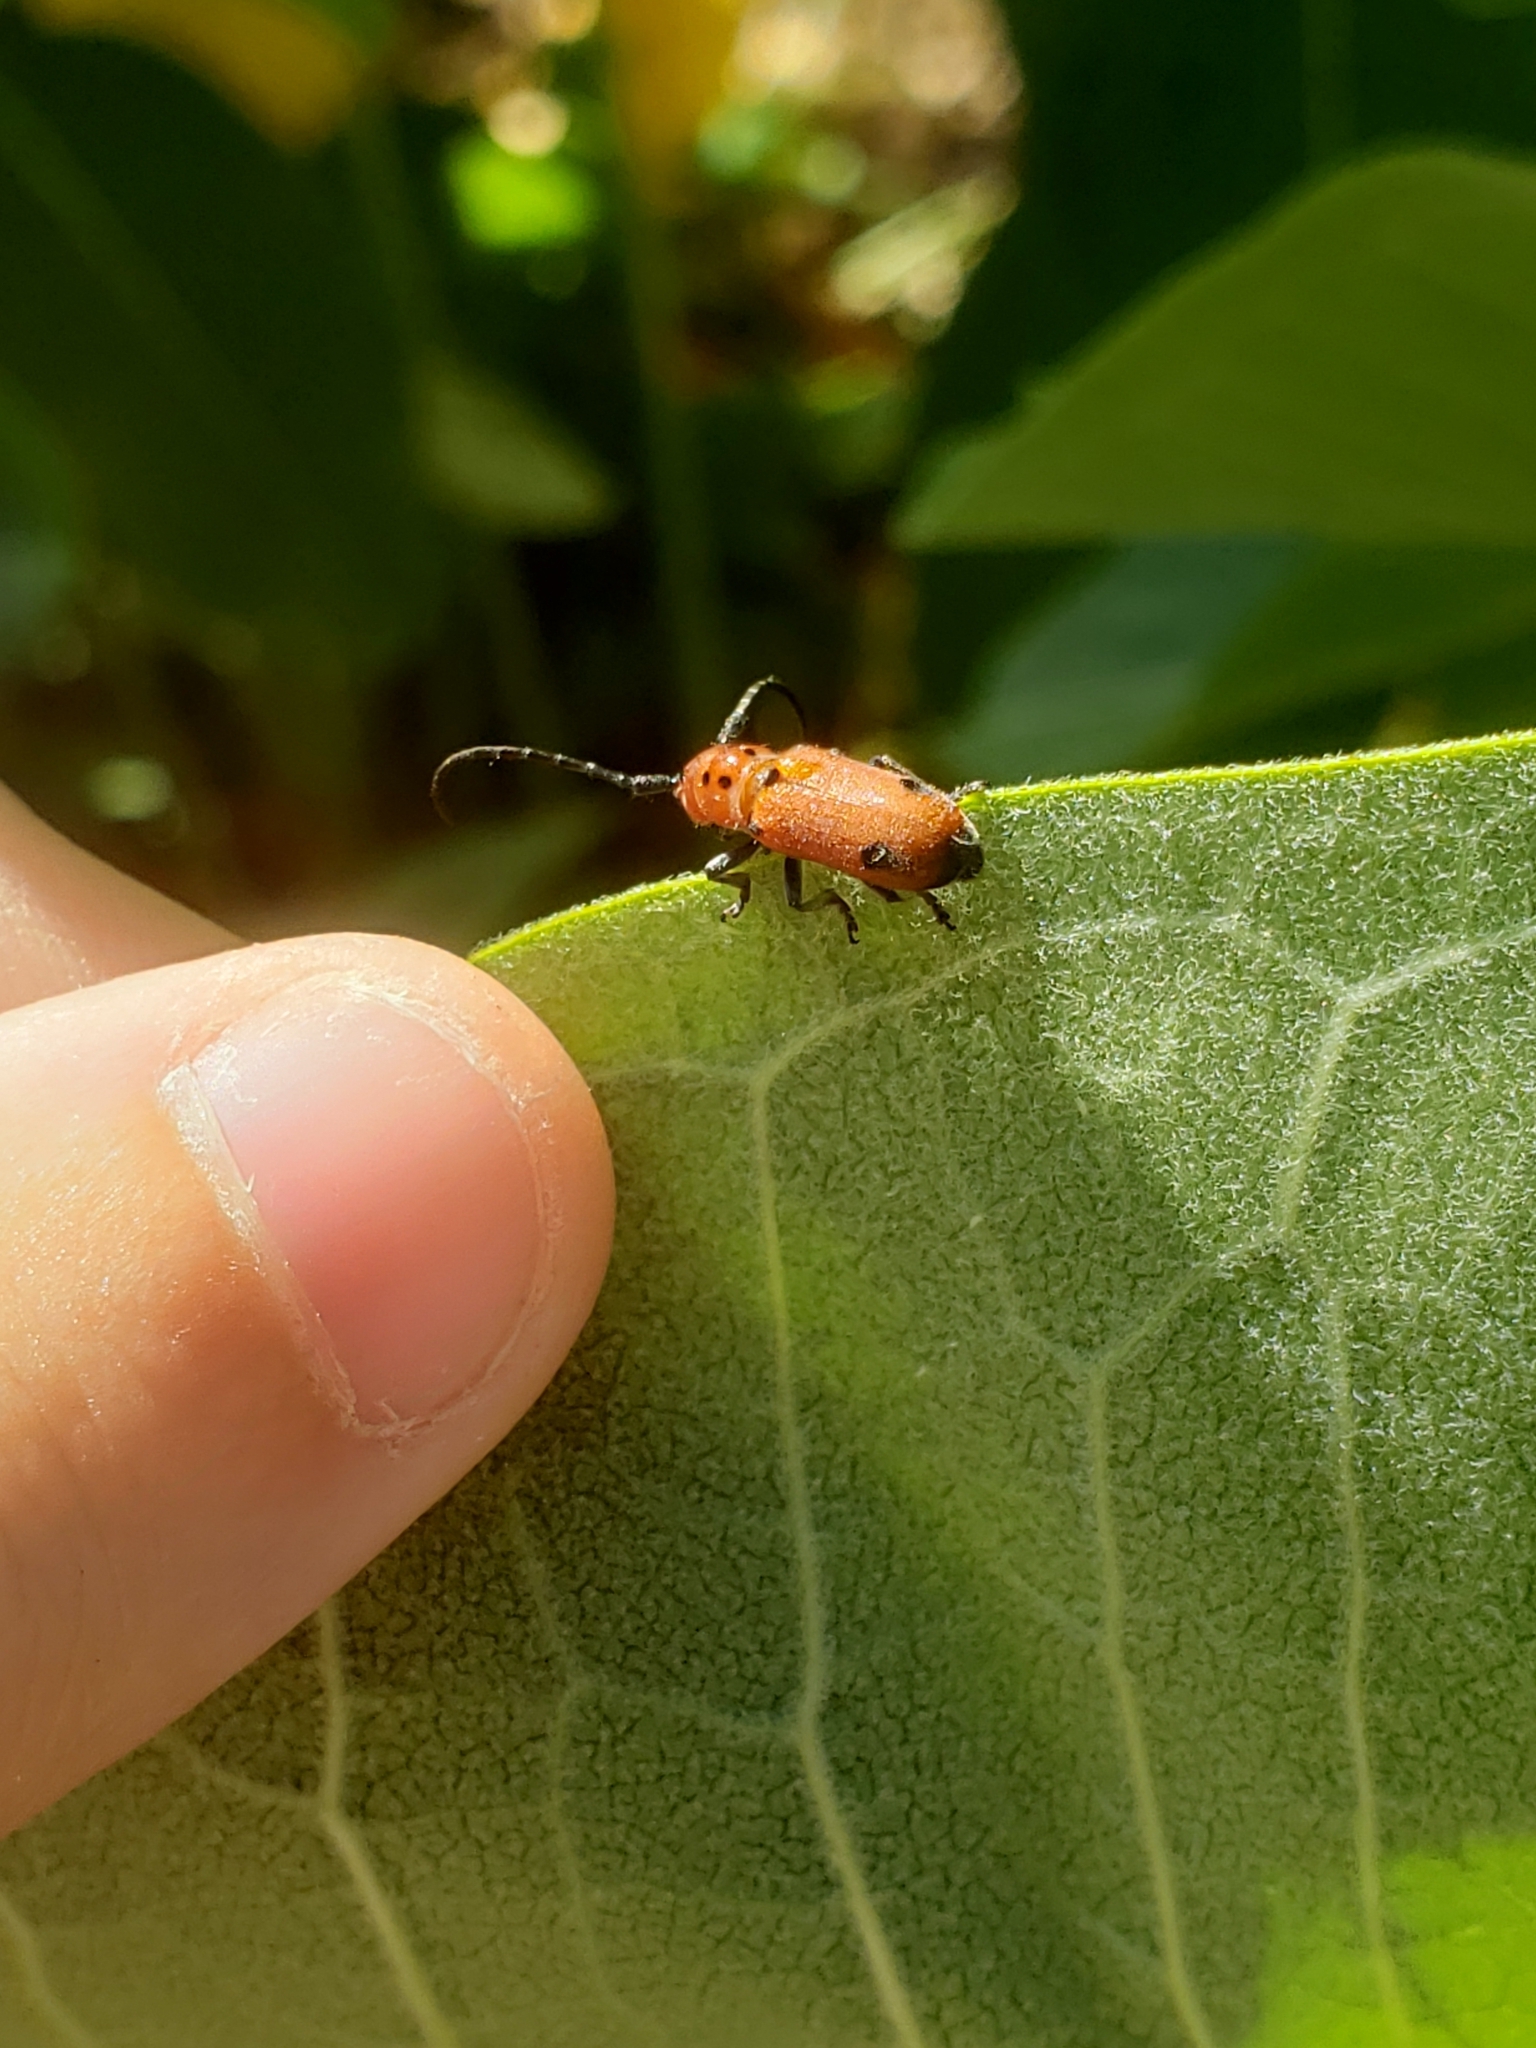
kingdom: Animalia
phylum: Arthropoda
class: Insecta
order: Coleoptera
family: Cerambycidae
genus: Tetraopes
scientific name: Tetraopes quinquemaculatus
